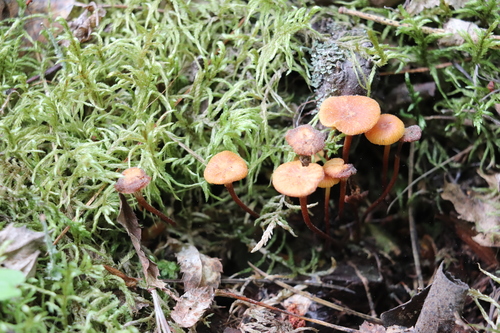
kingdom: Fungi
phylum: Basidiomycota
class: Agaricomycetes
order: Agaricales
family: Mycenaceae
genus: Xeromphalina
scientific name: Xeromphalina campanella
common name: Pinewood gingertail
